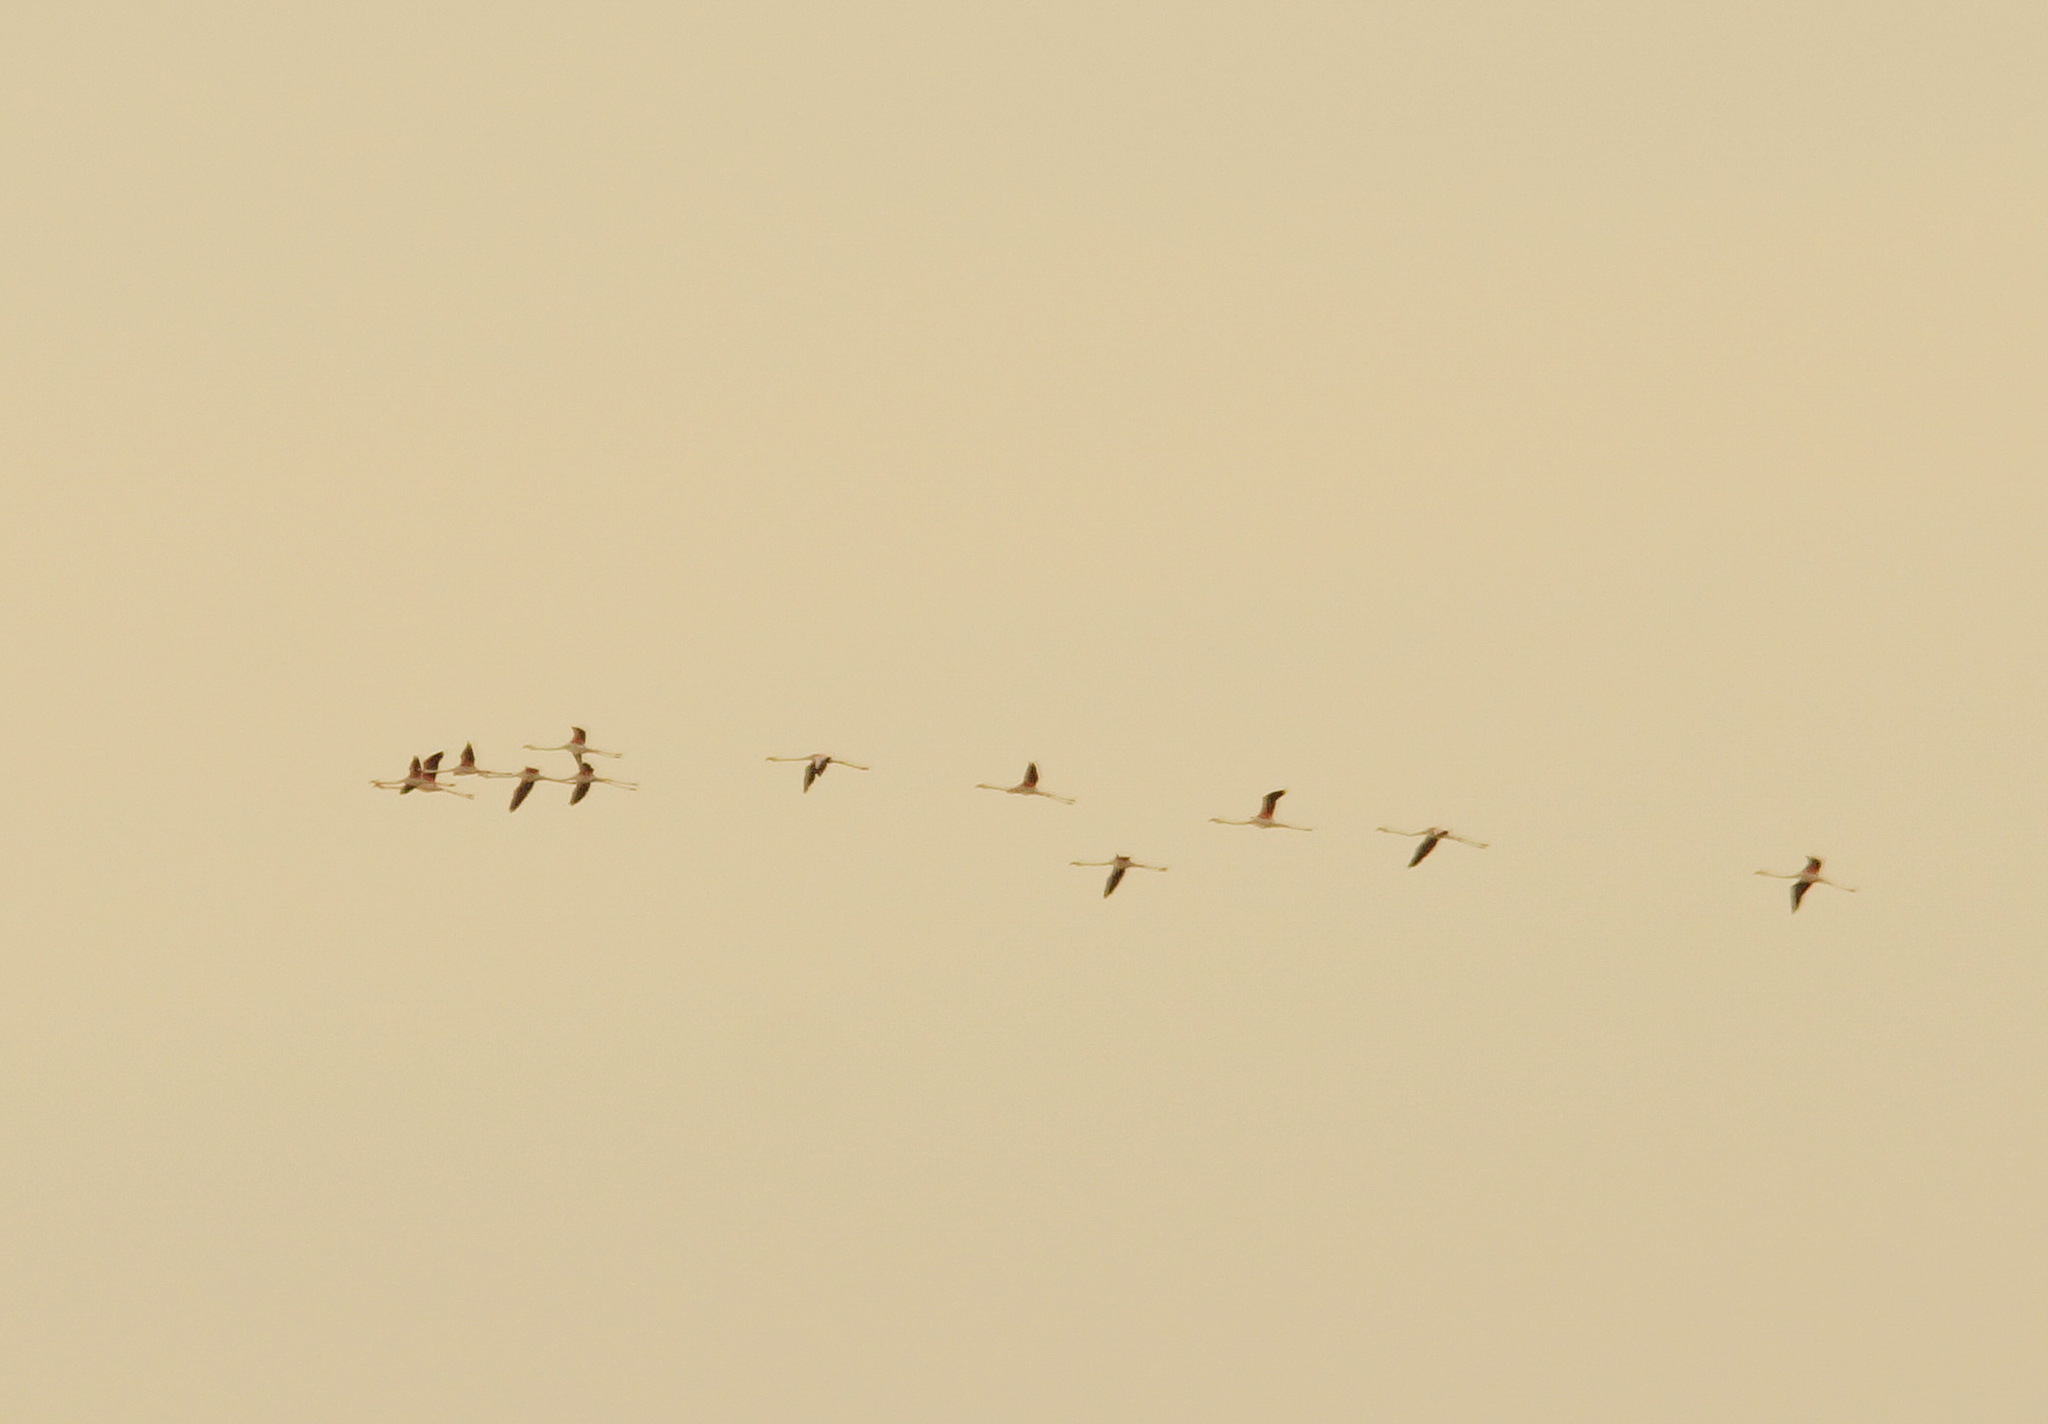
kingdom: Animalia
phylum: Chordata
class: Aves
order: Phoenicopteriformes
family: Phoenicopteridae
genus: Phoenicopterus
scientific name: Phoenicopterus roseus
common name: Greater flamingo
